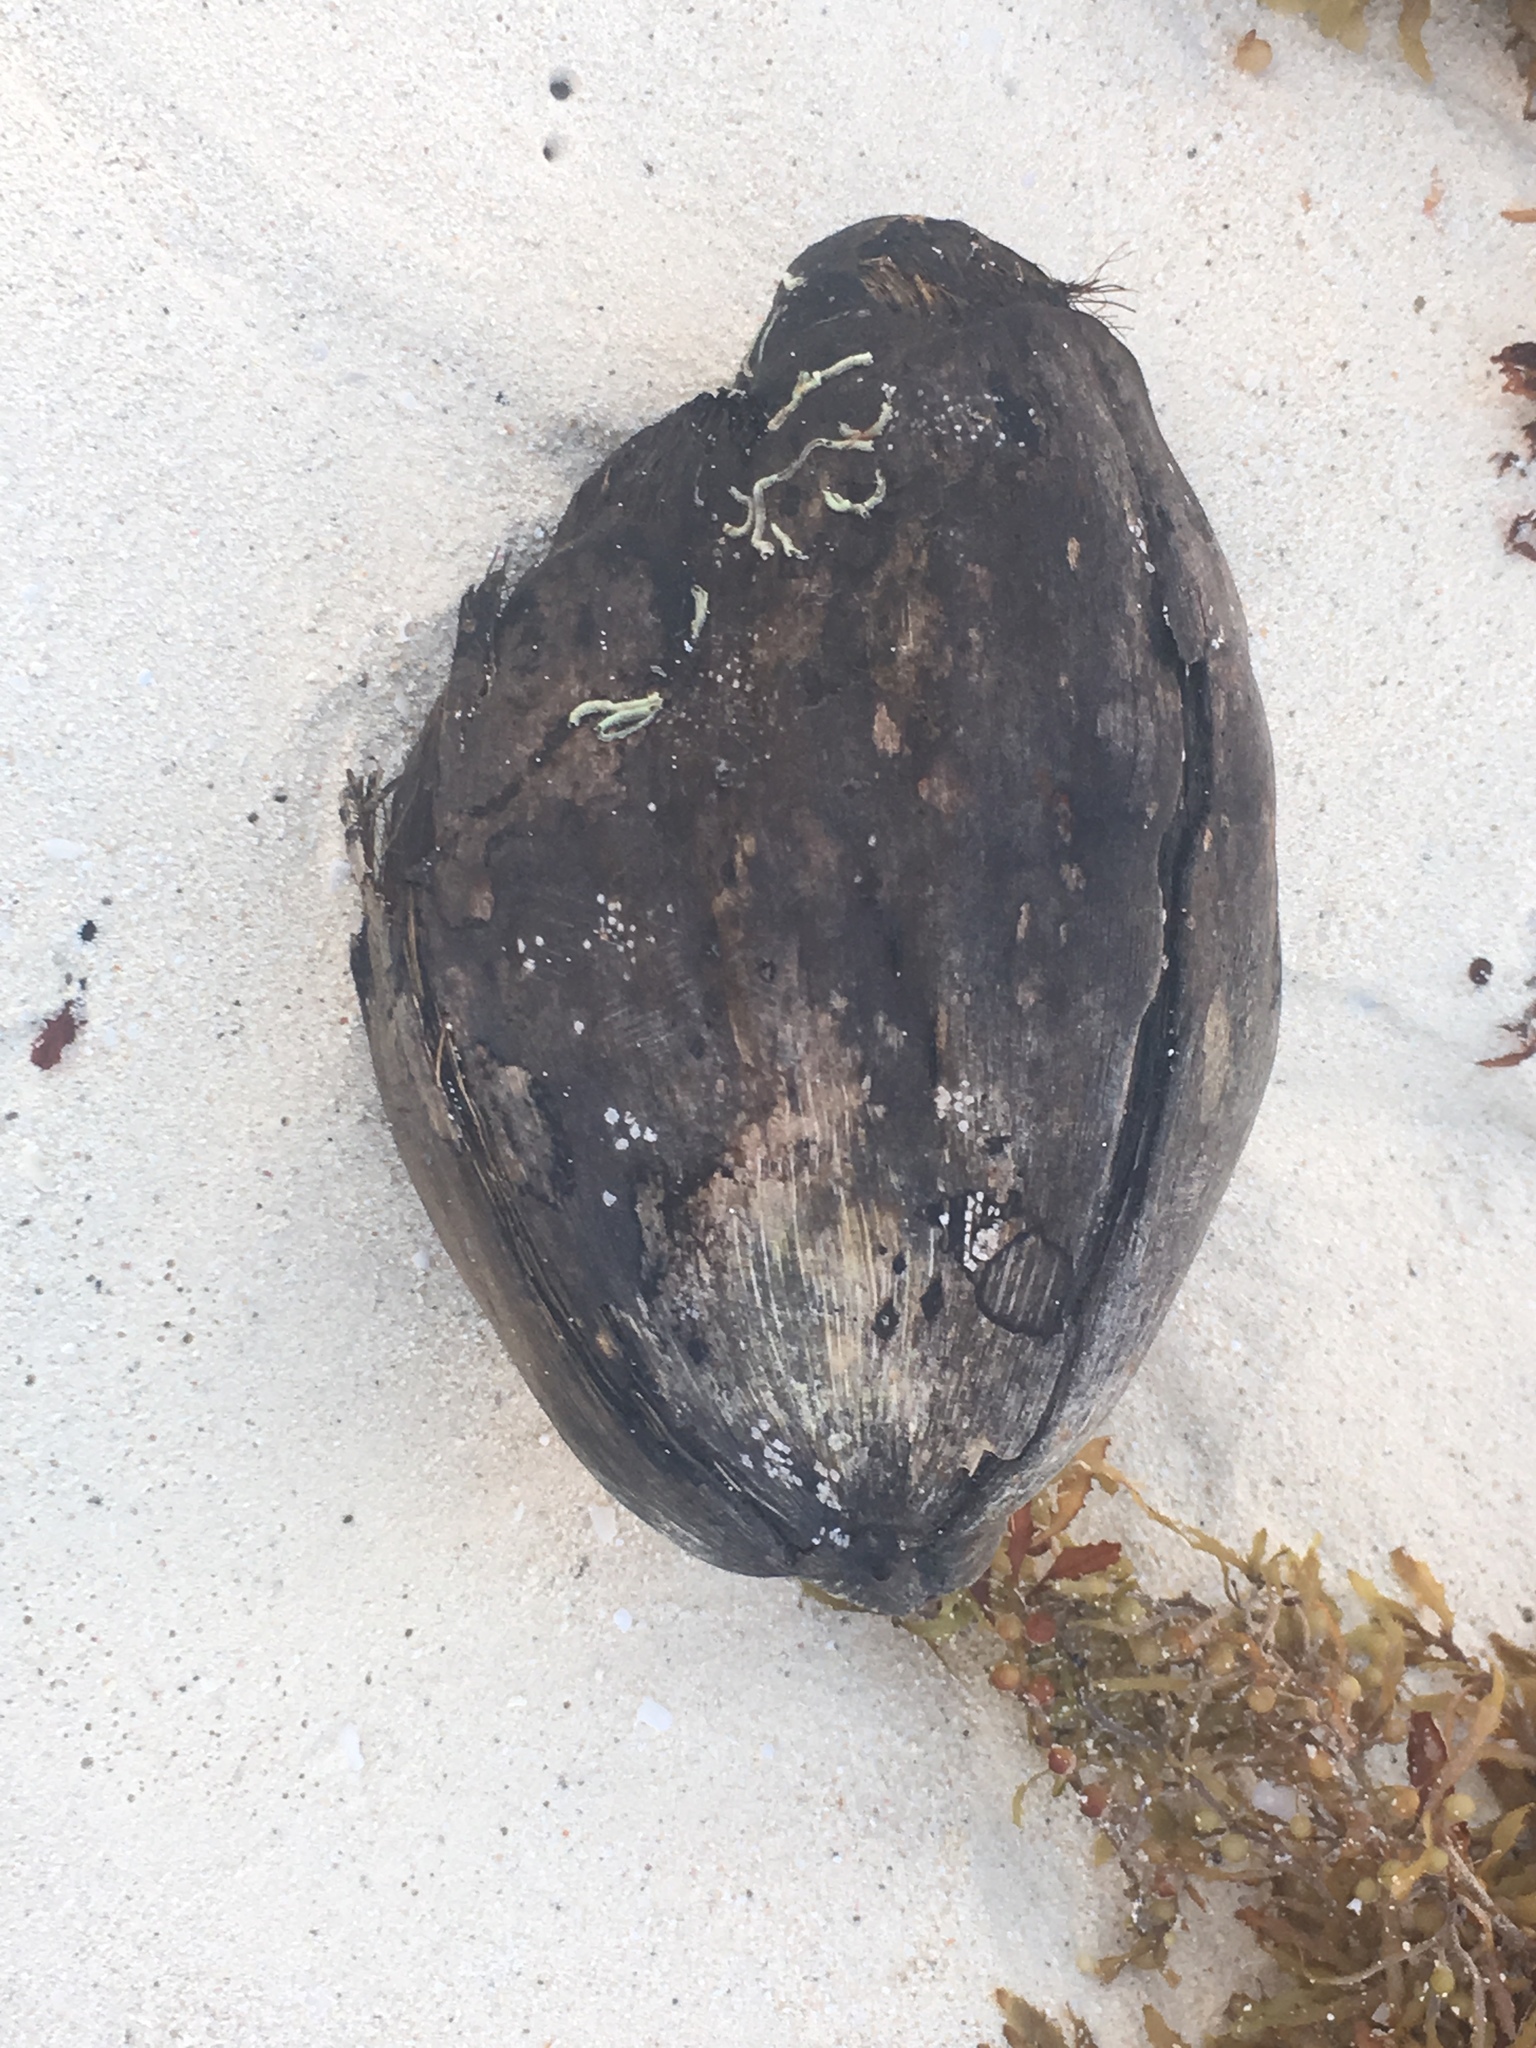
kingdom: Plantae
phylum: Tracheophyta
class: Liliopsida
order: Arecales
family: Arecaceae
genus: Cocos
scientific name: Cocos nucifera
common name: Coconut palm
